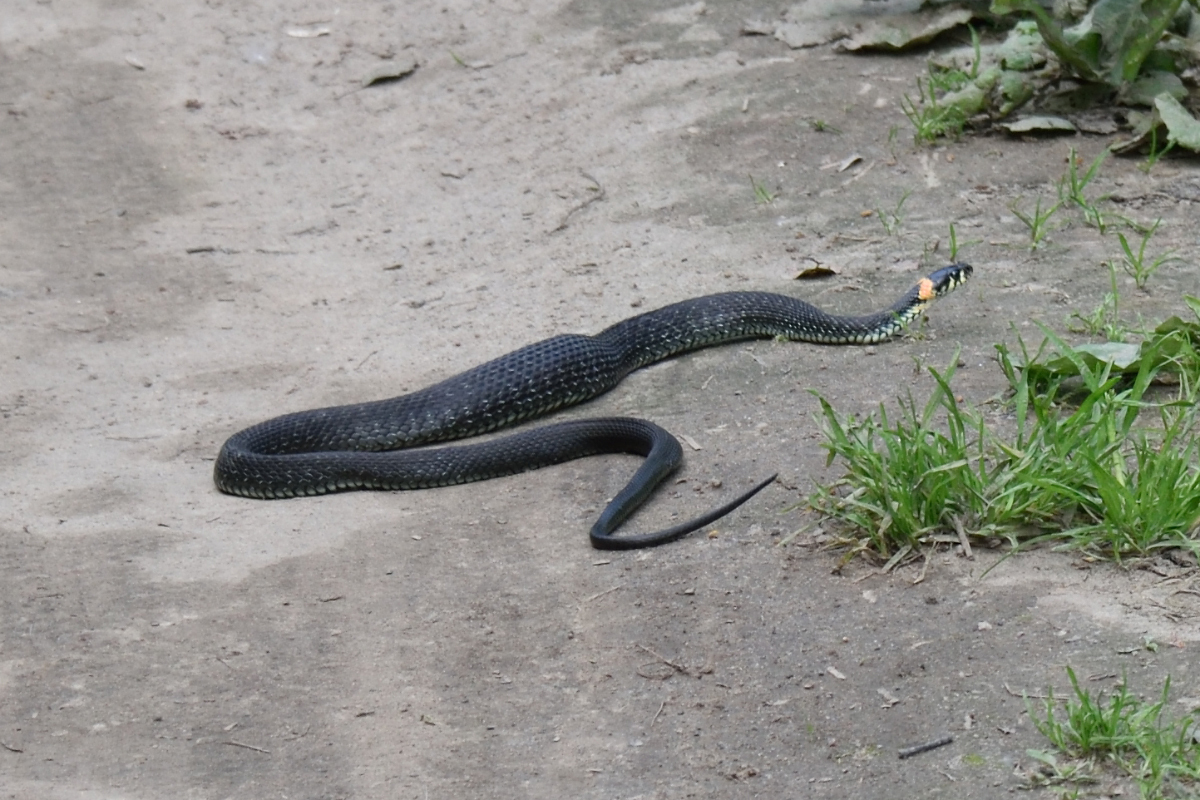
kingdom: Animalia
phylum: Chordata
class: Squamata
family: Colubridae
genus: Natrix
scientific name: Natrix natrix
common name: Grass snake
